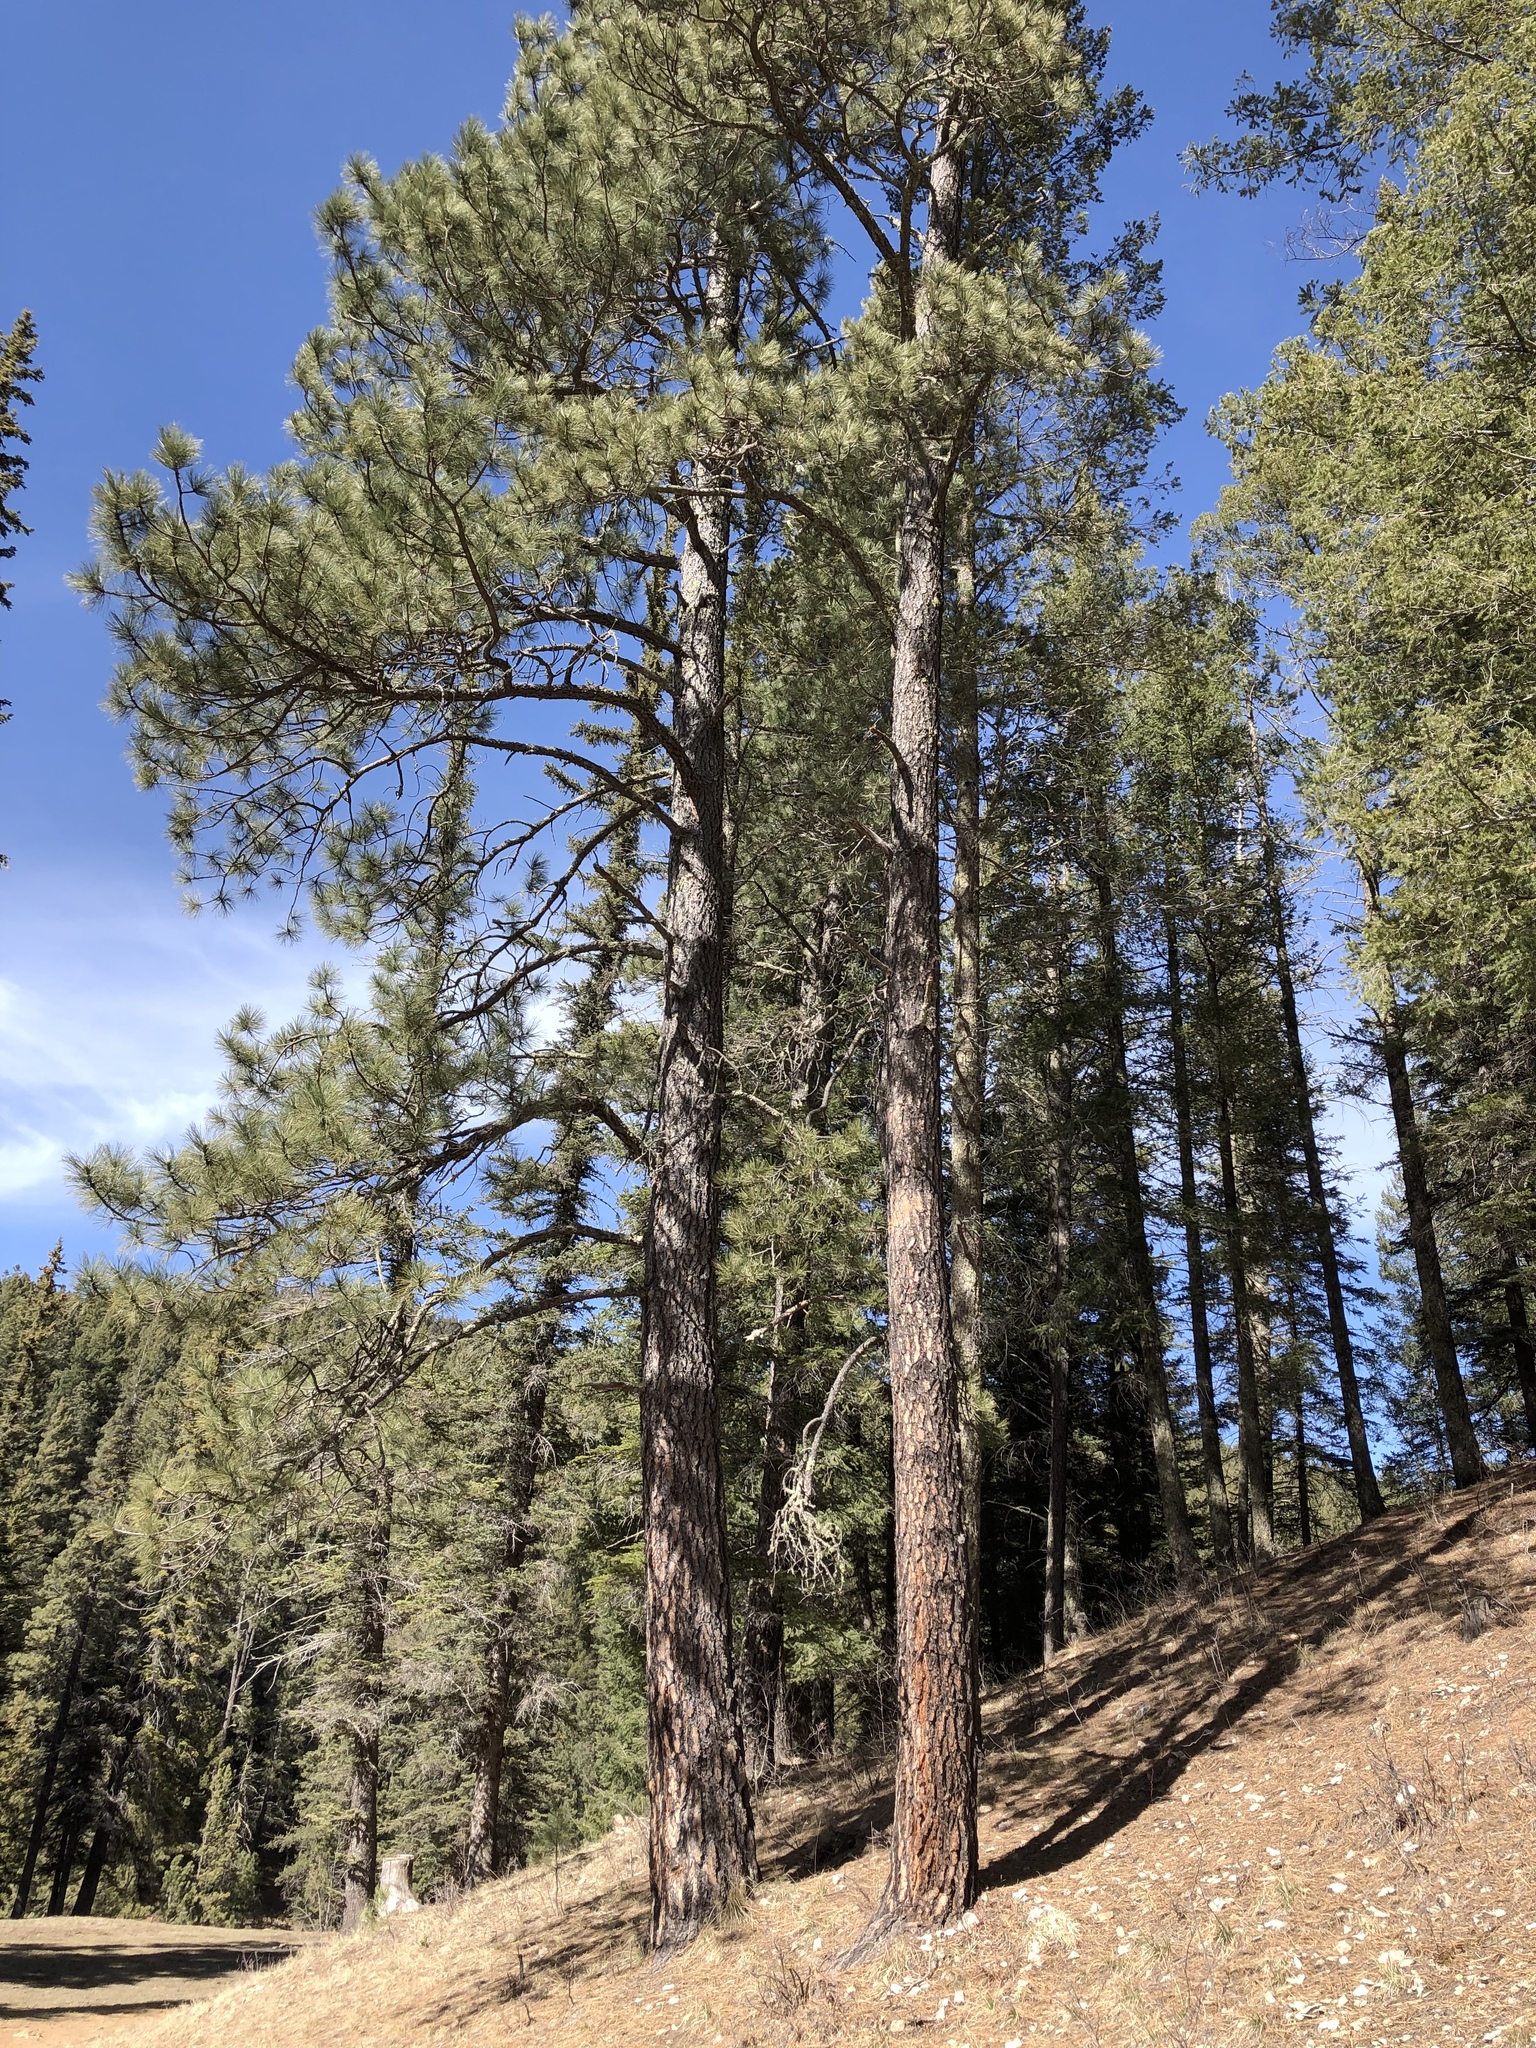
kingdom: Plantae
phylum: Tracheophyta
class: Pinopsida
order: Pinales
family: Pinaceae
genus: Pinus
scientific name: Pinus ponderosa
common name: Western yellow-pine
